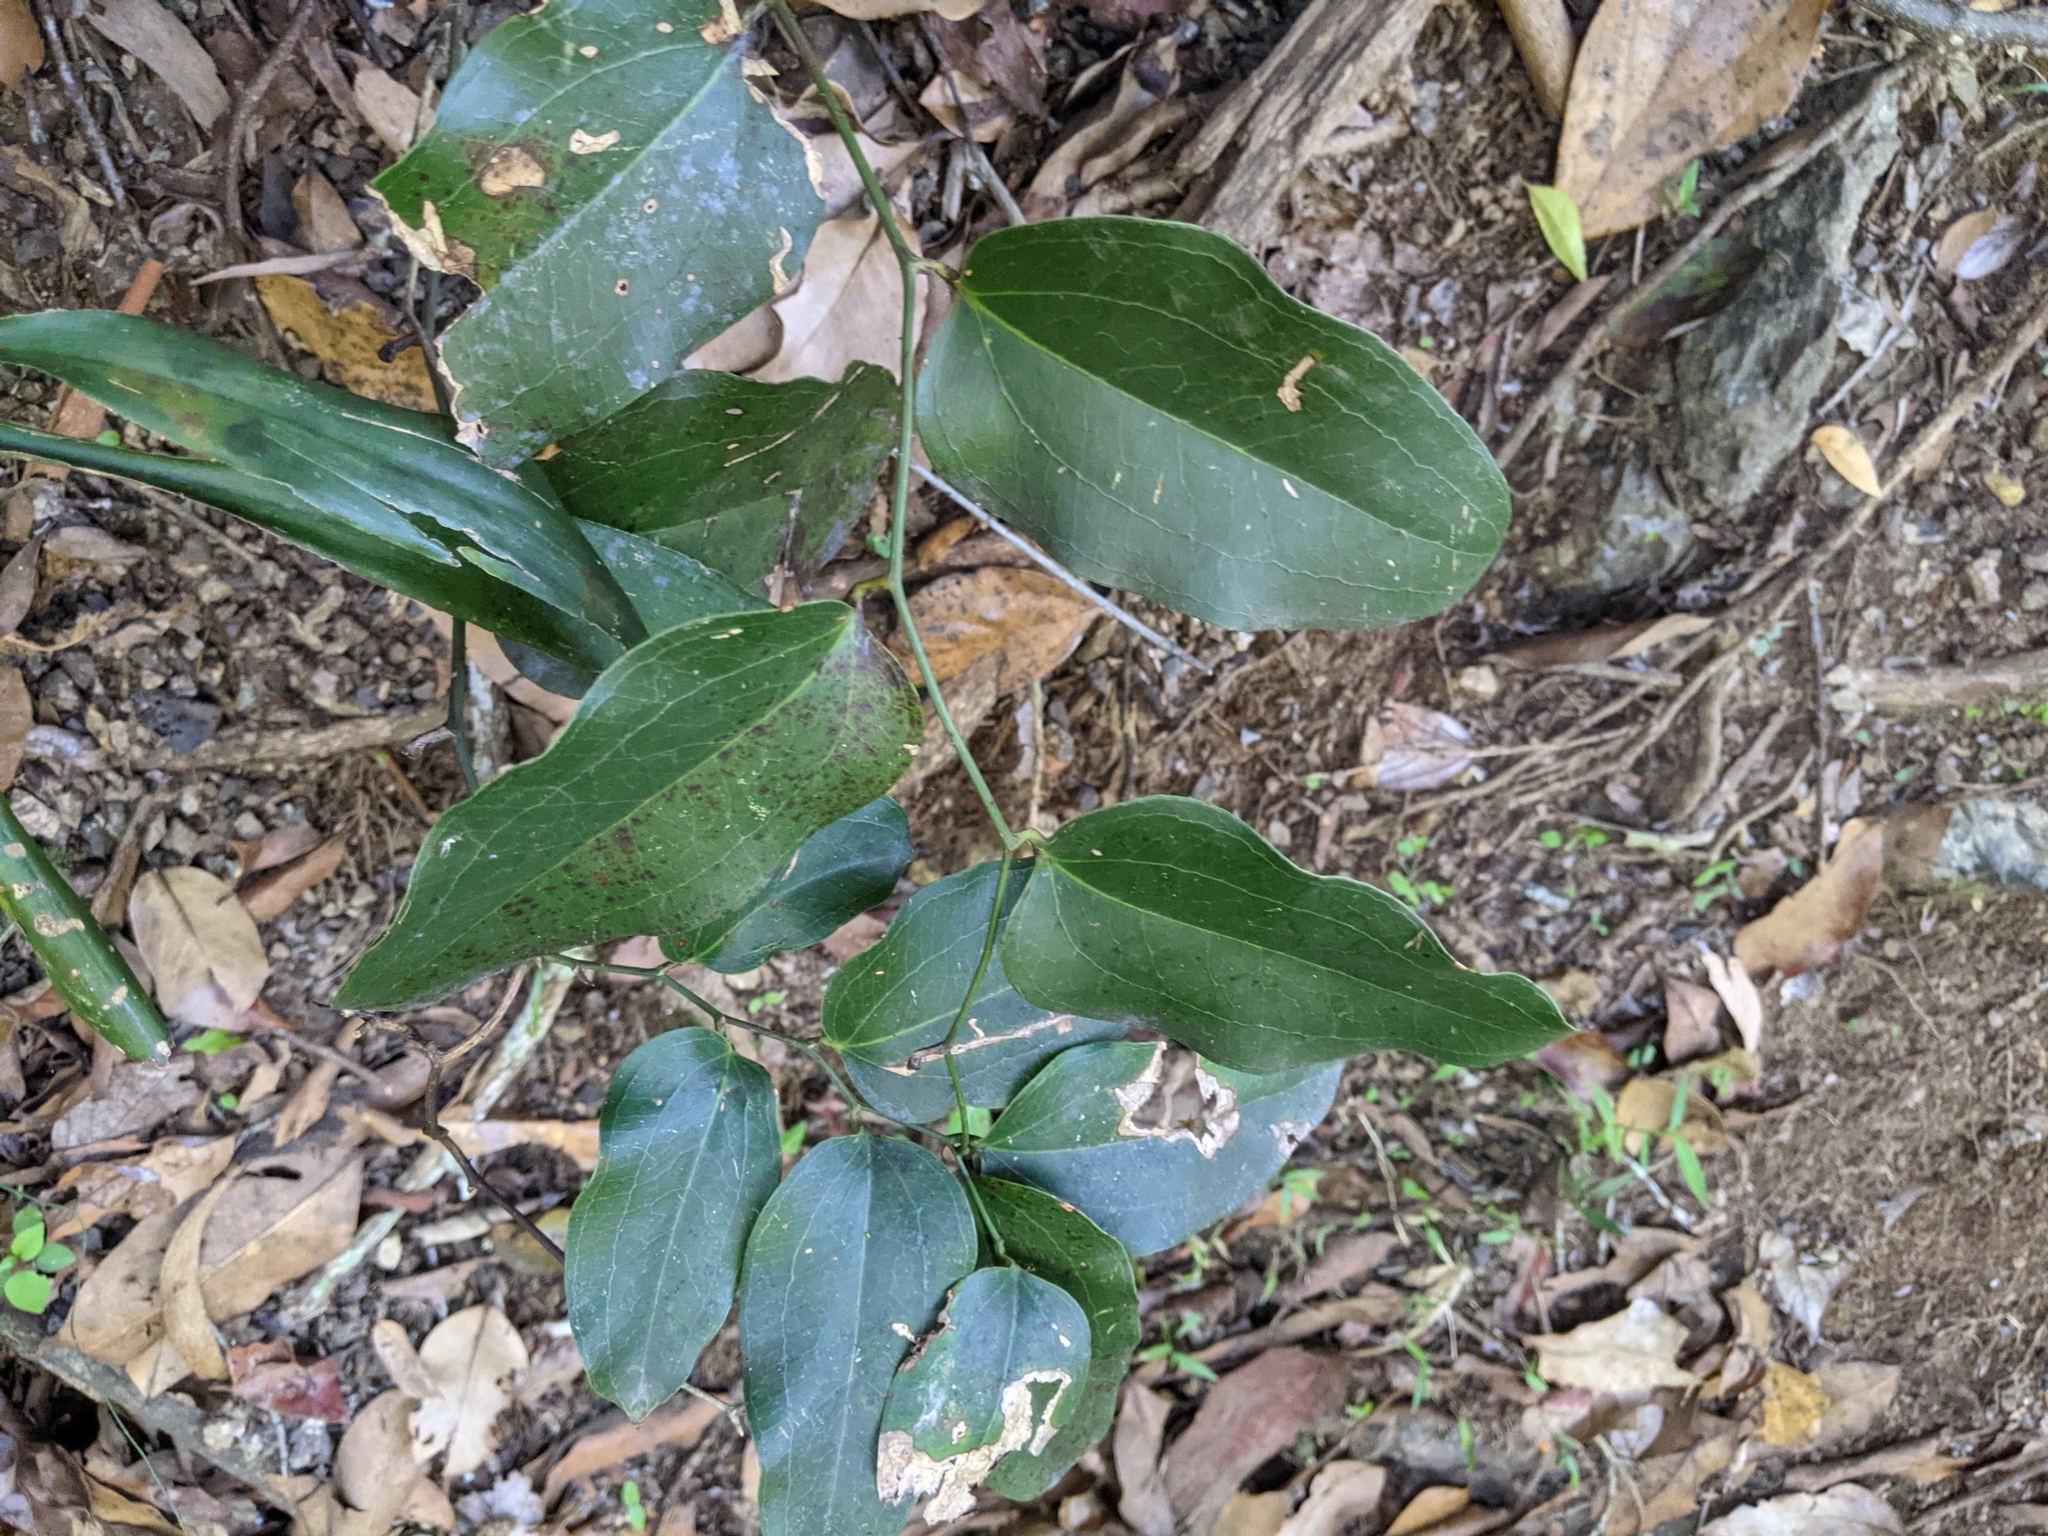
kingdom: Plantae
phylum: Tracheophyta
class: Liliopsida
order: Liliales
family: Smilacaceae
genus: Smilax
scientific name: Smilax australis
